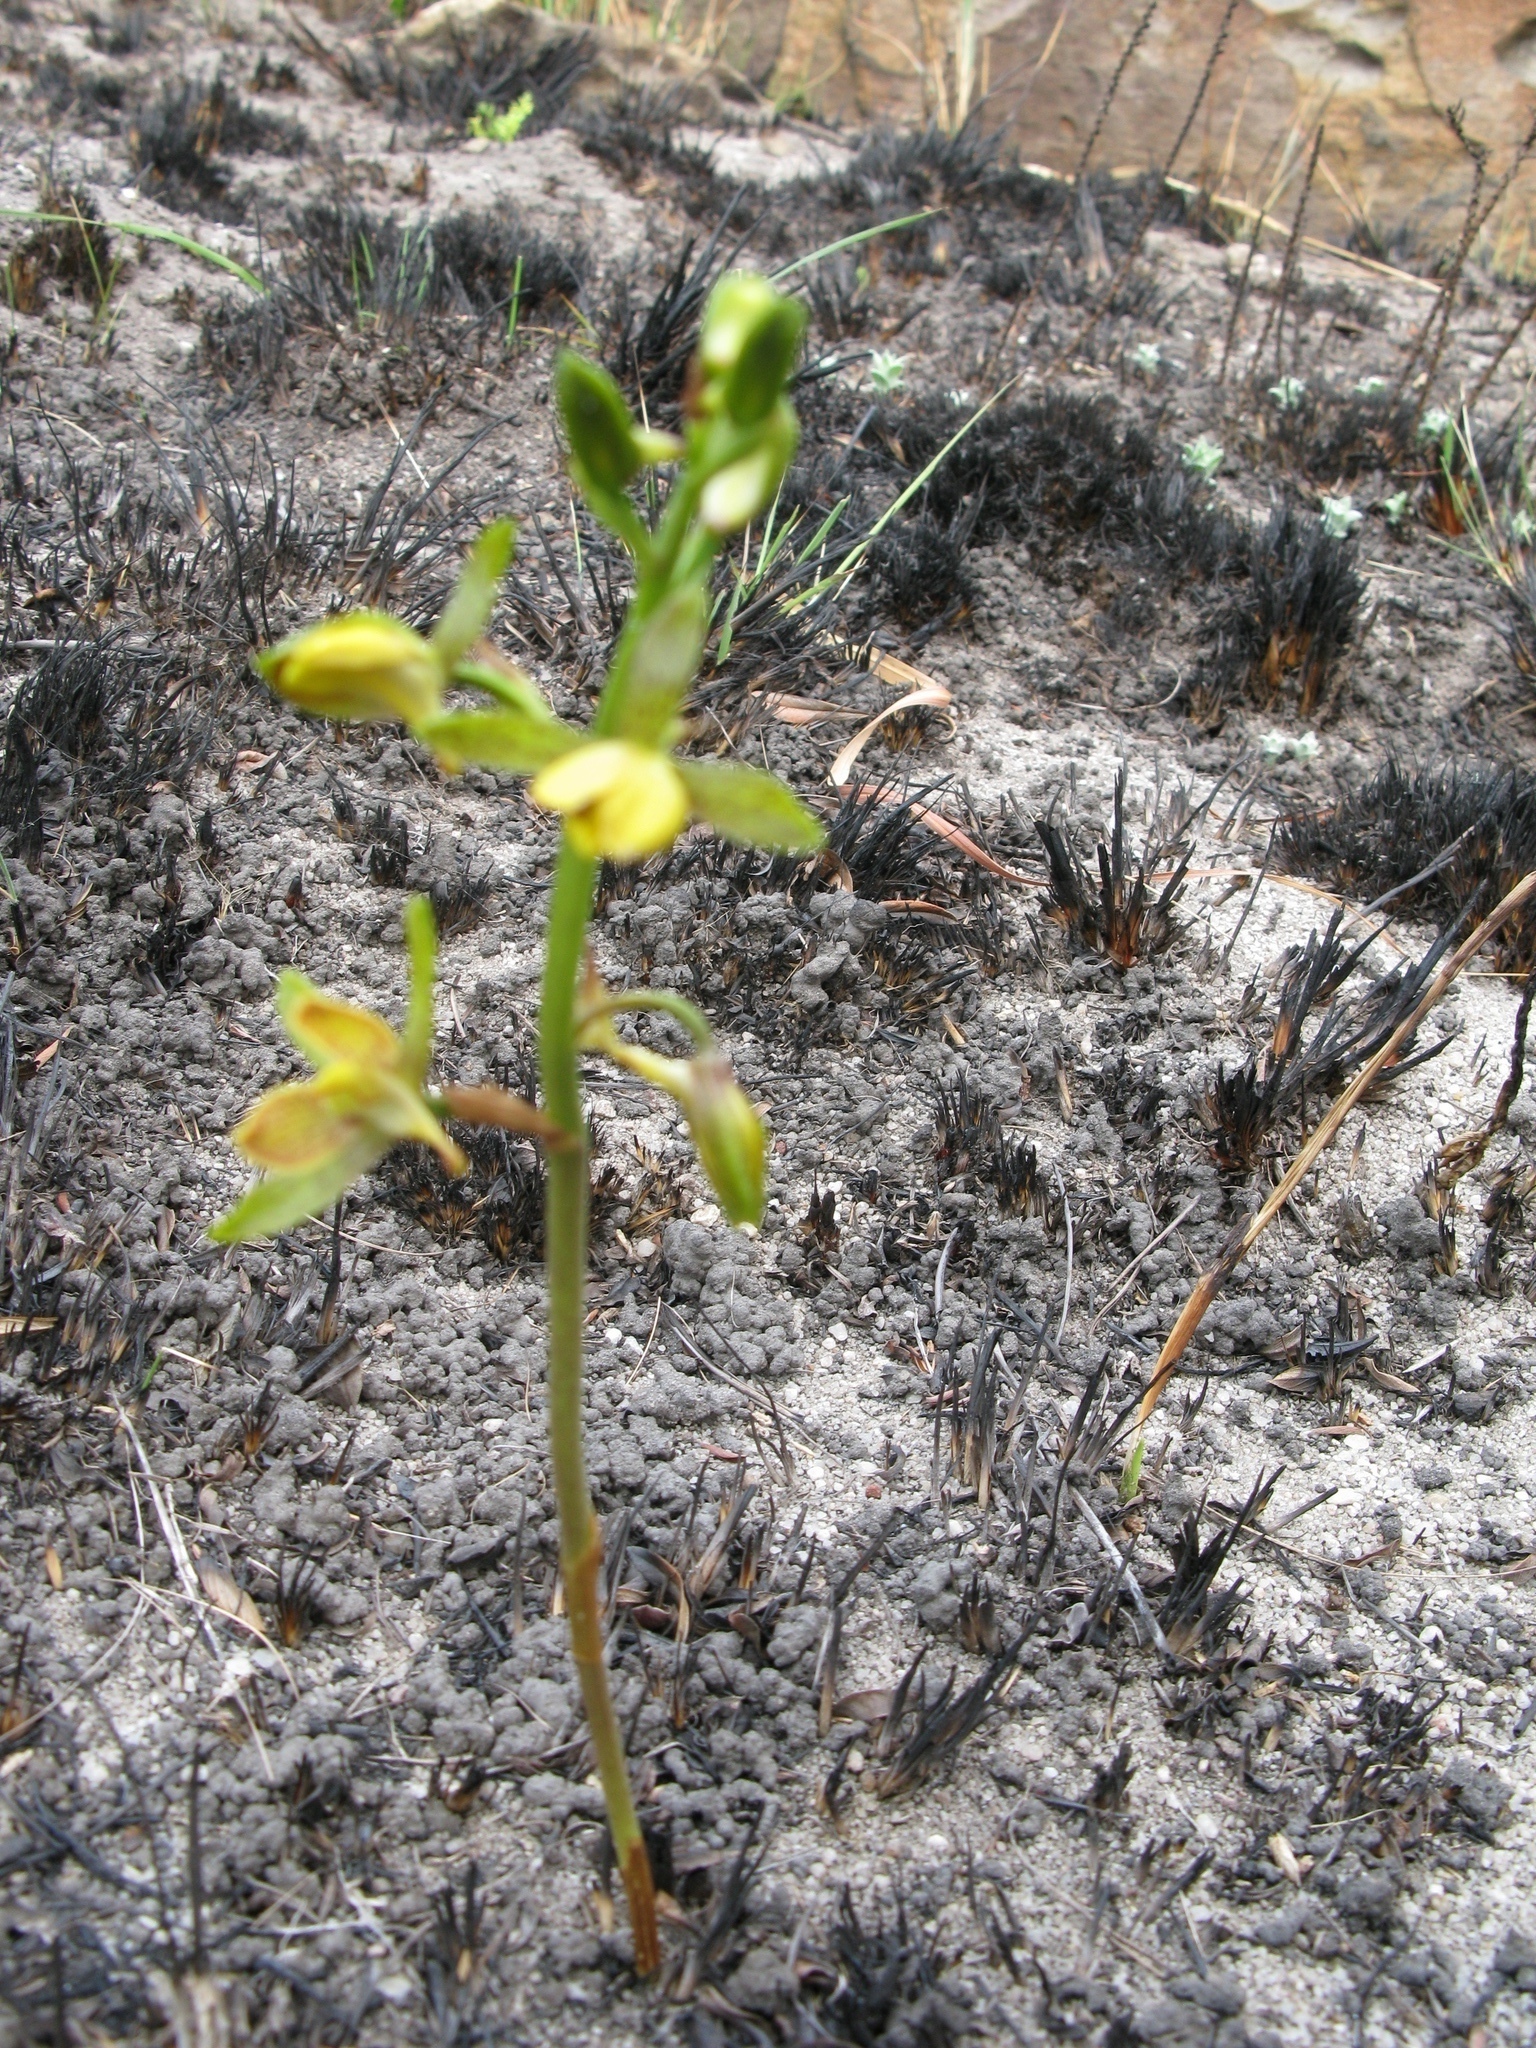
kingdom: Plantae
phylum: Tracheophyta
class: Liliopsida
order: Asparagales
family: Orchidaceae
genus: Eulophia
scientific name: Eulophia parviflora
